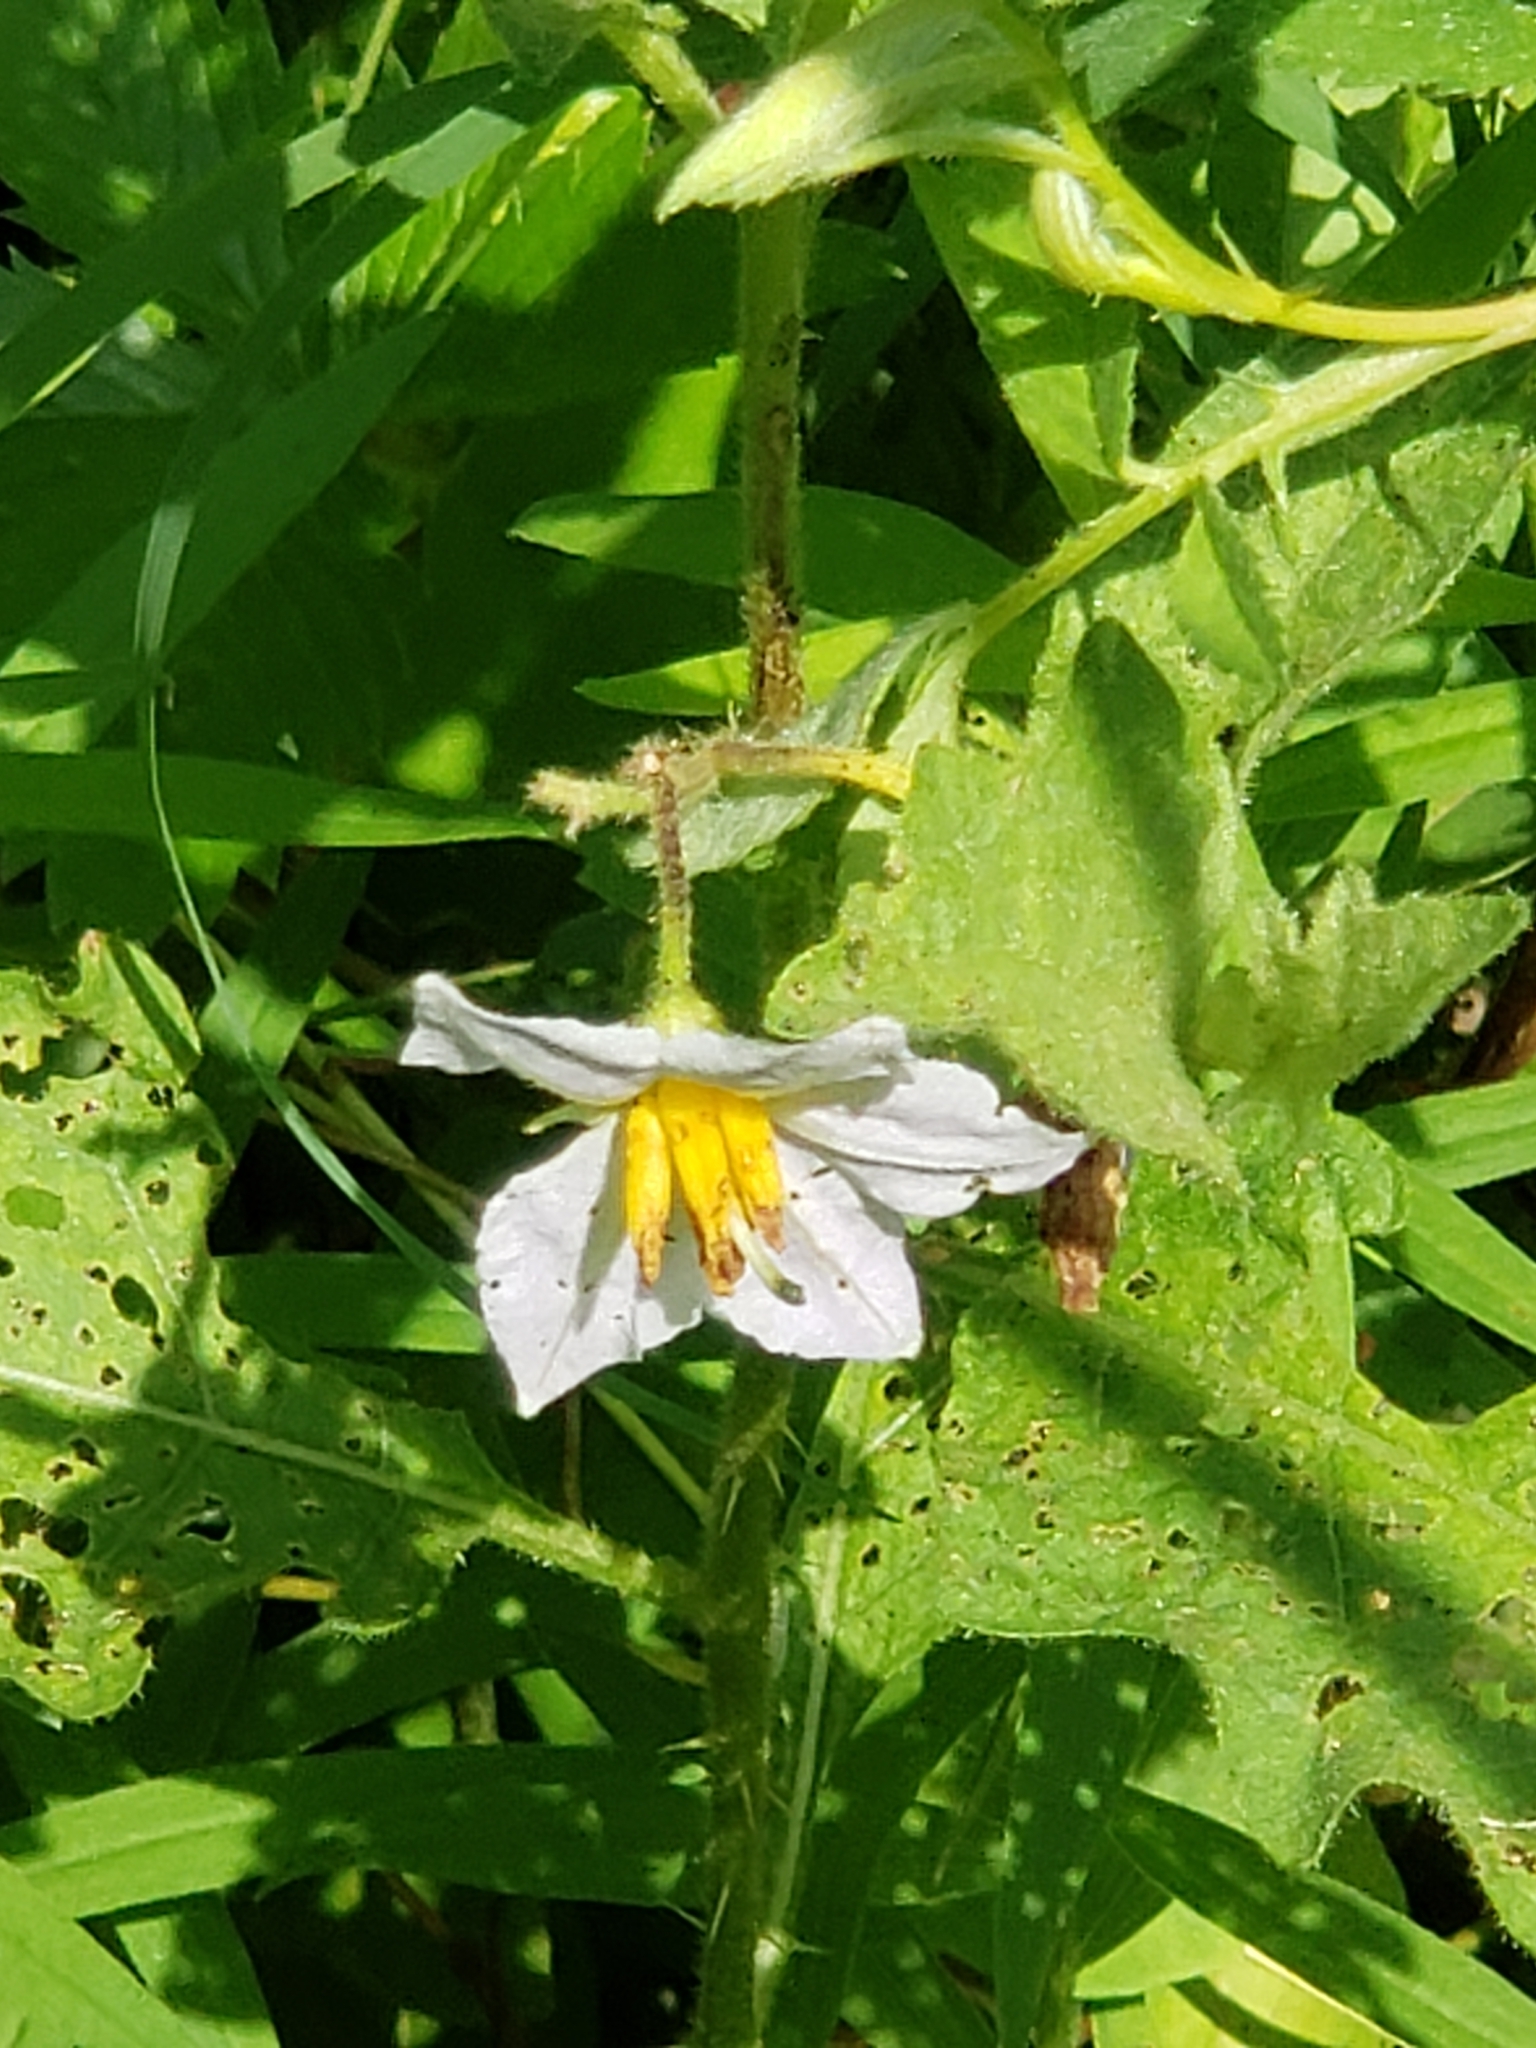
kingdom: Plantae
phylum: Tracheophyta
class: Magnoliopsida
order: Solanales
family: Solanaceae
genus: Solanum
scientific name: Solanum carolinense
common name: Horse-nettle
